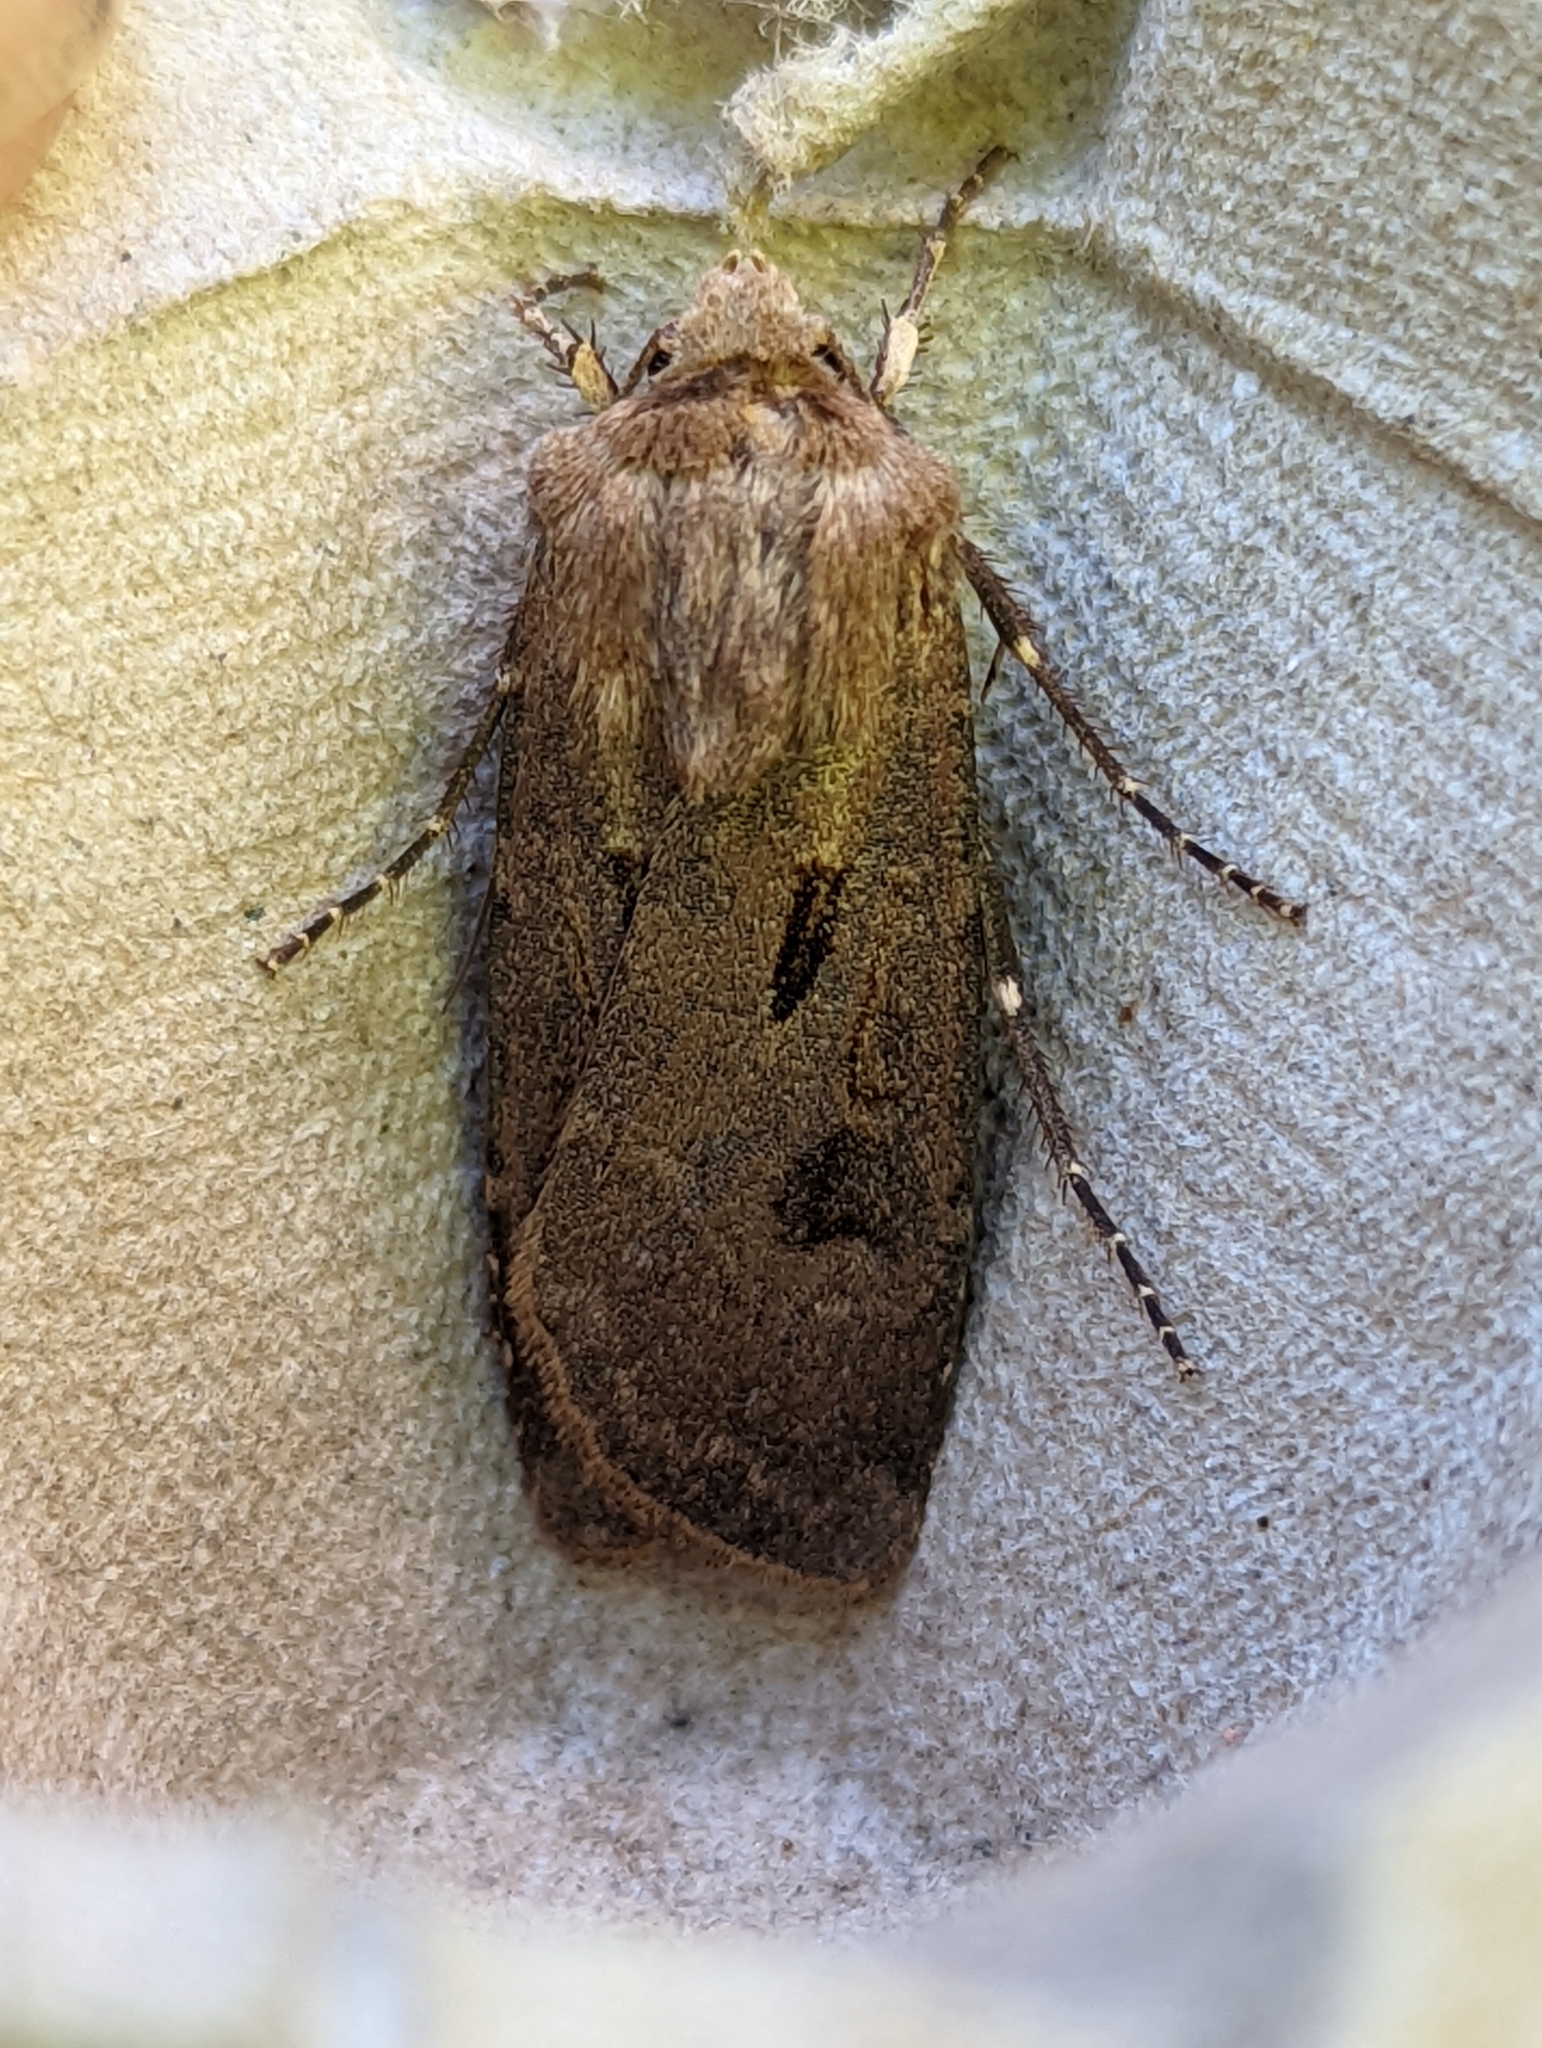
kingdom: Animalia
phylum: Arthropoda
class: Insecta
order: Lepidoptera
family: Noctuidae
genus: Agrotis
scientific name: Agrotis exclamationis
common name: Heart and dart
